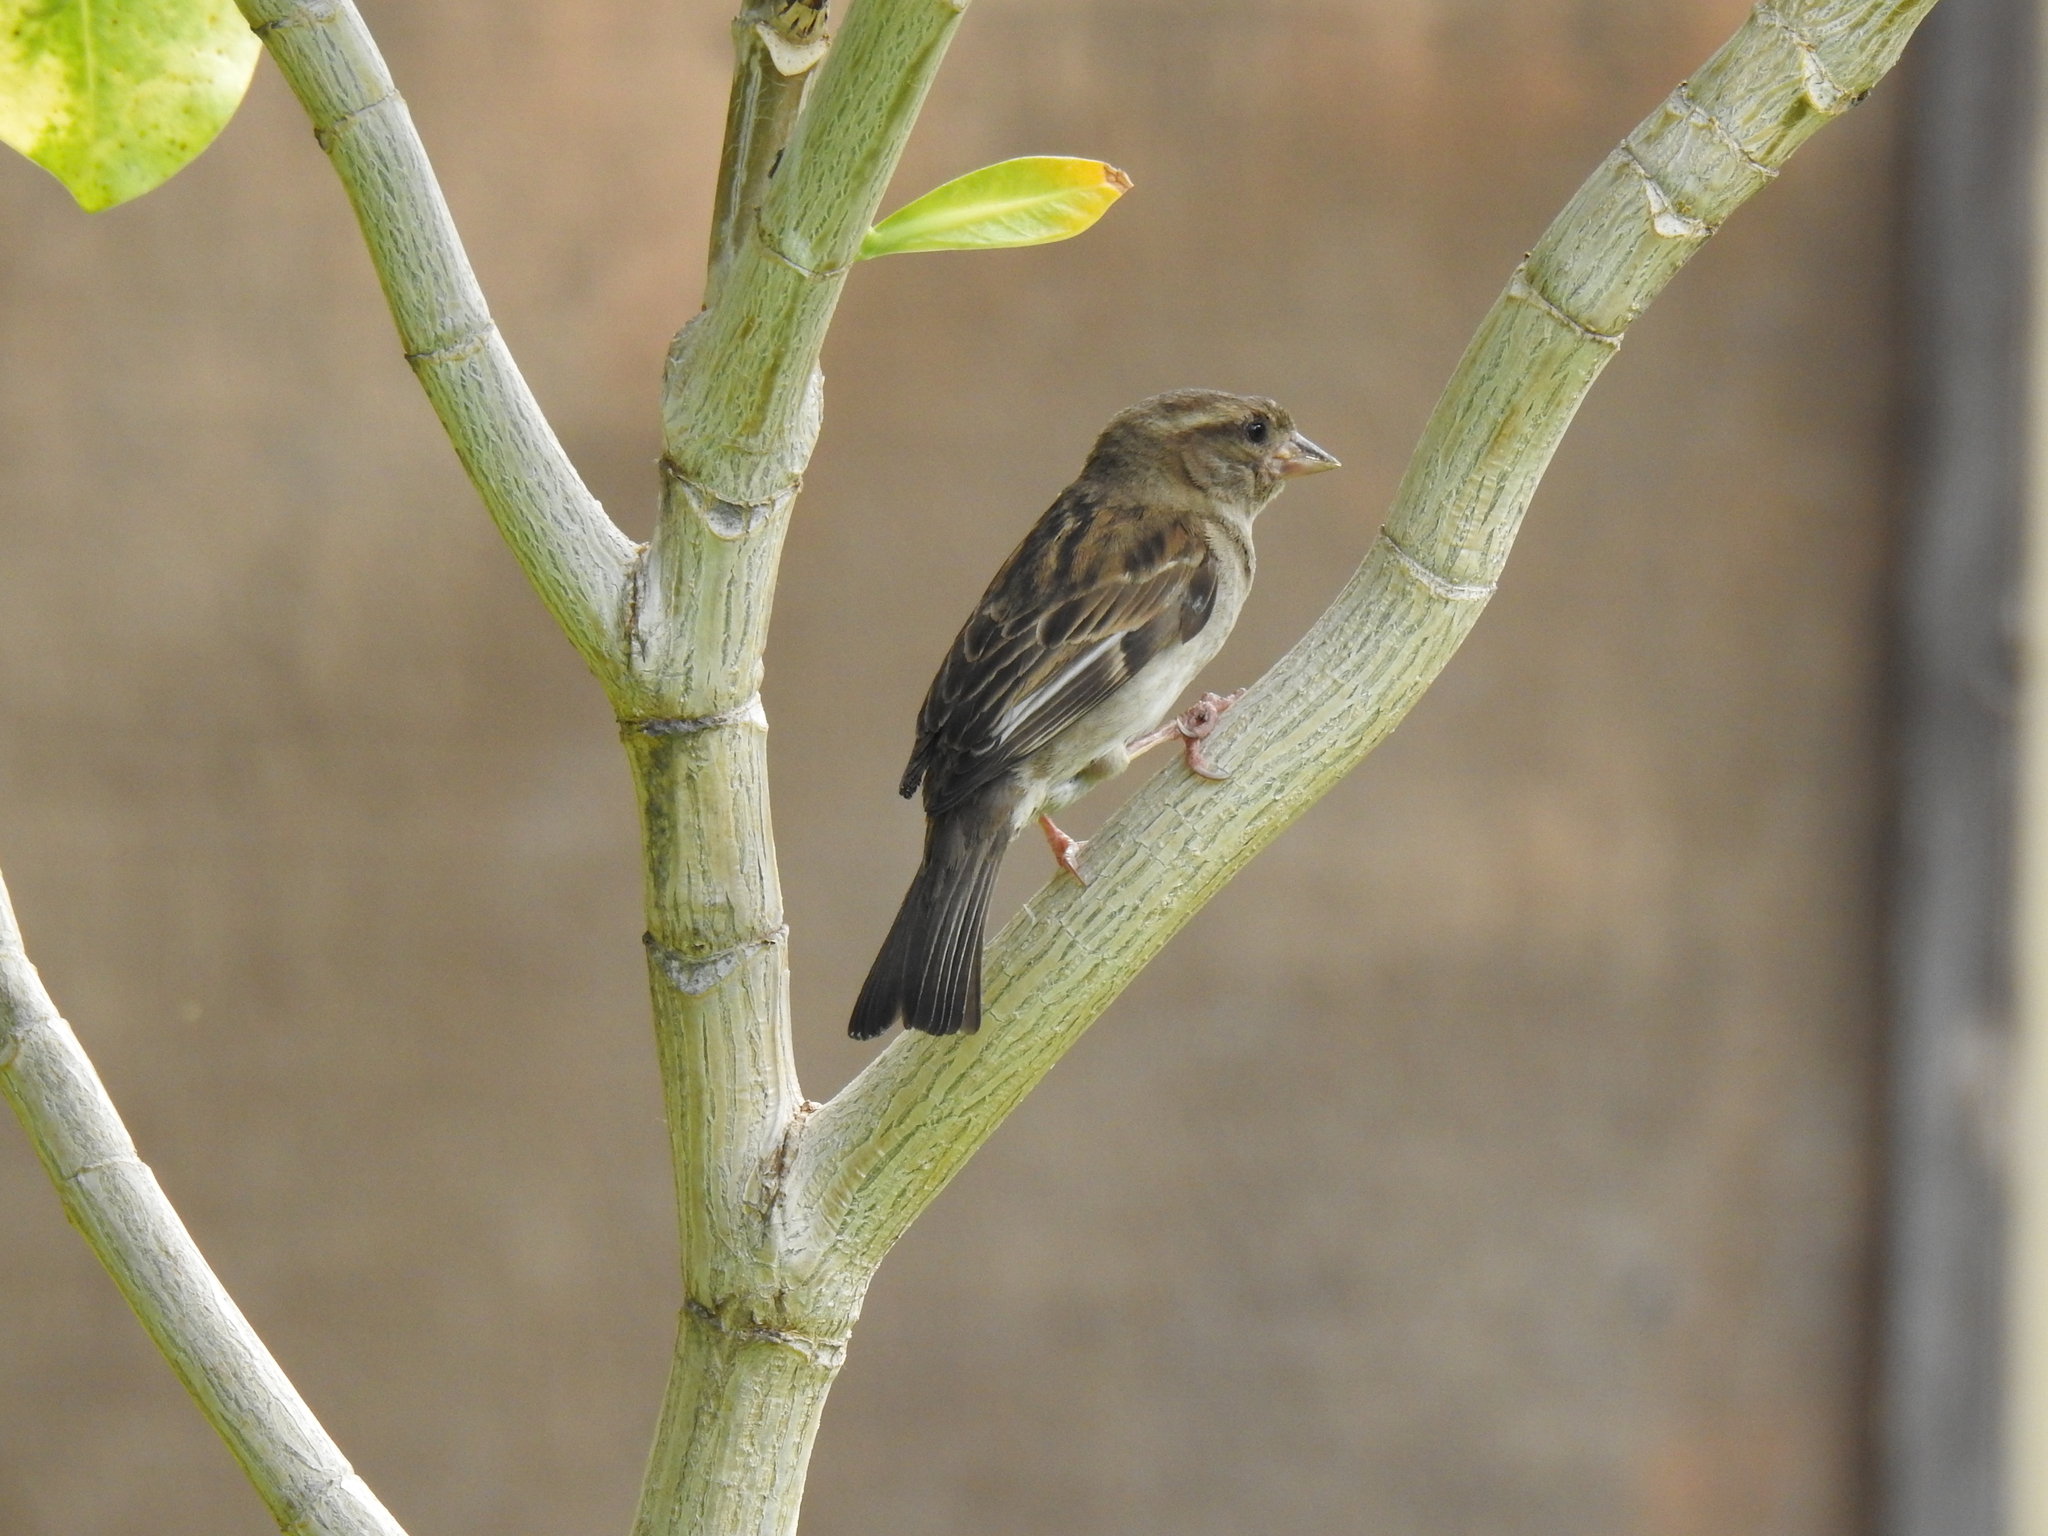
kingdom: Animalia
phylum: Chordata
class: Aves
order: Passeriformes
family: Passeridae
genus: Passer
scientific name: Passer domesticus
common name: House sparrow
